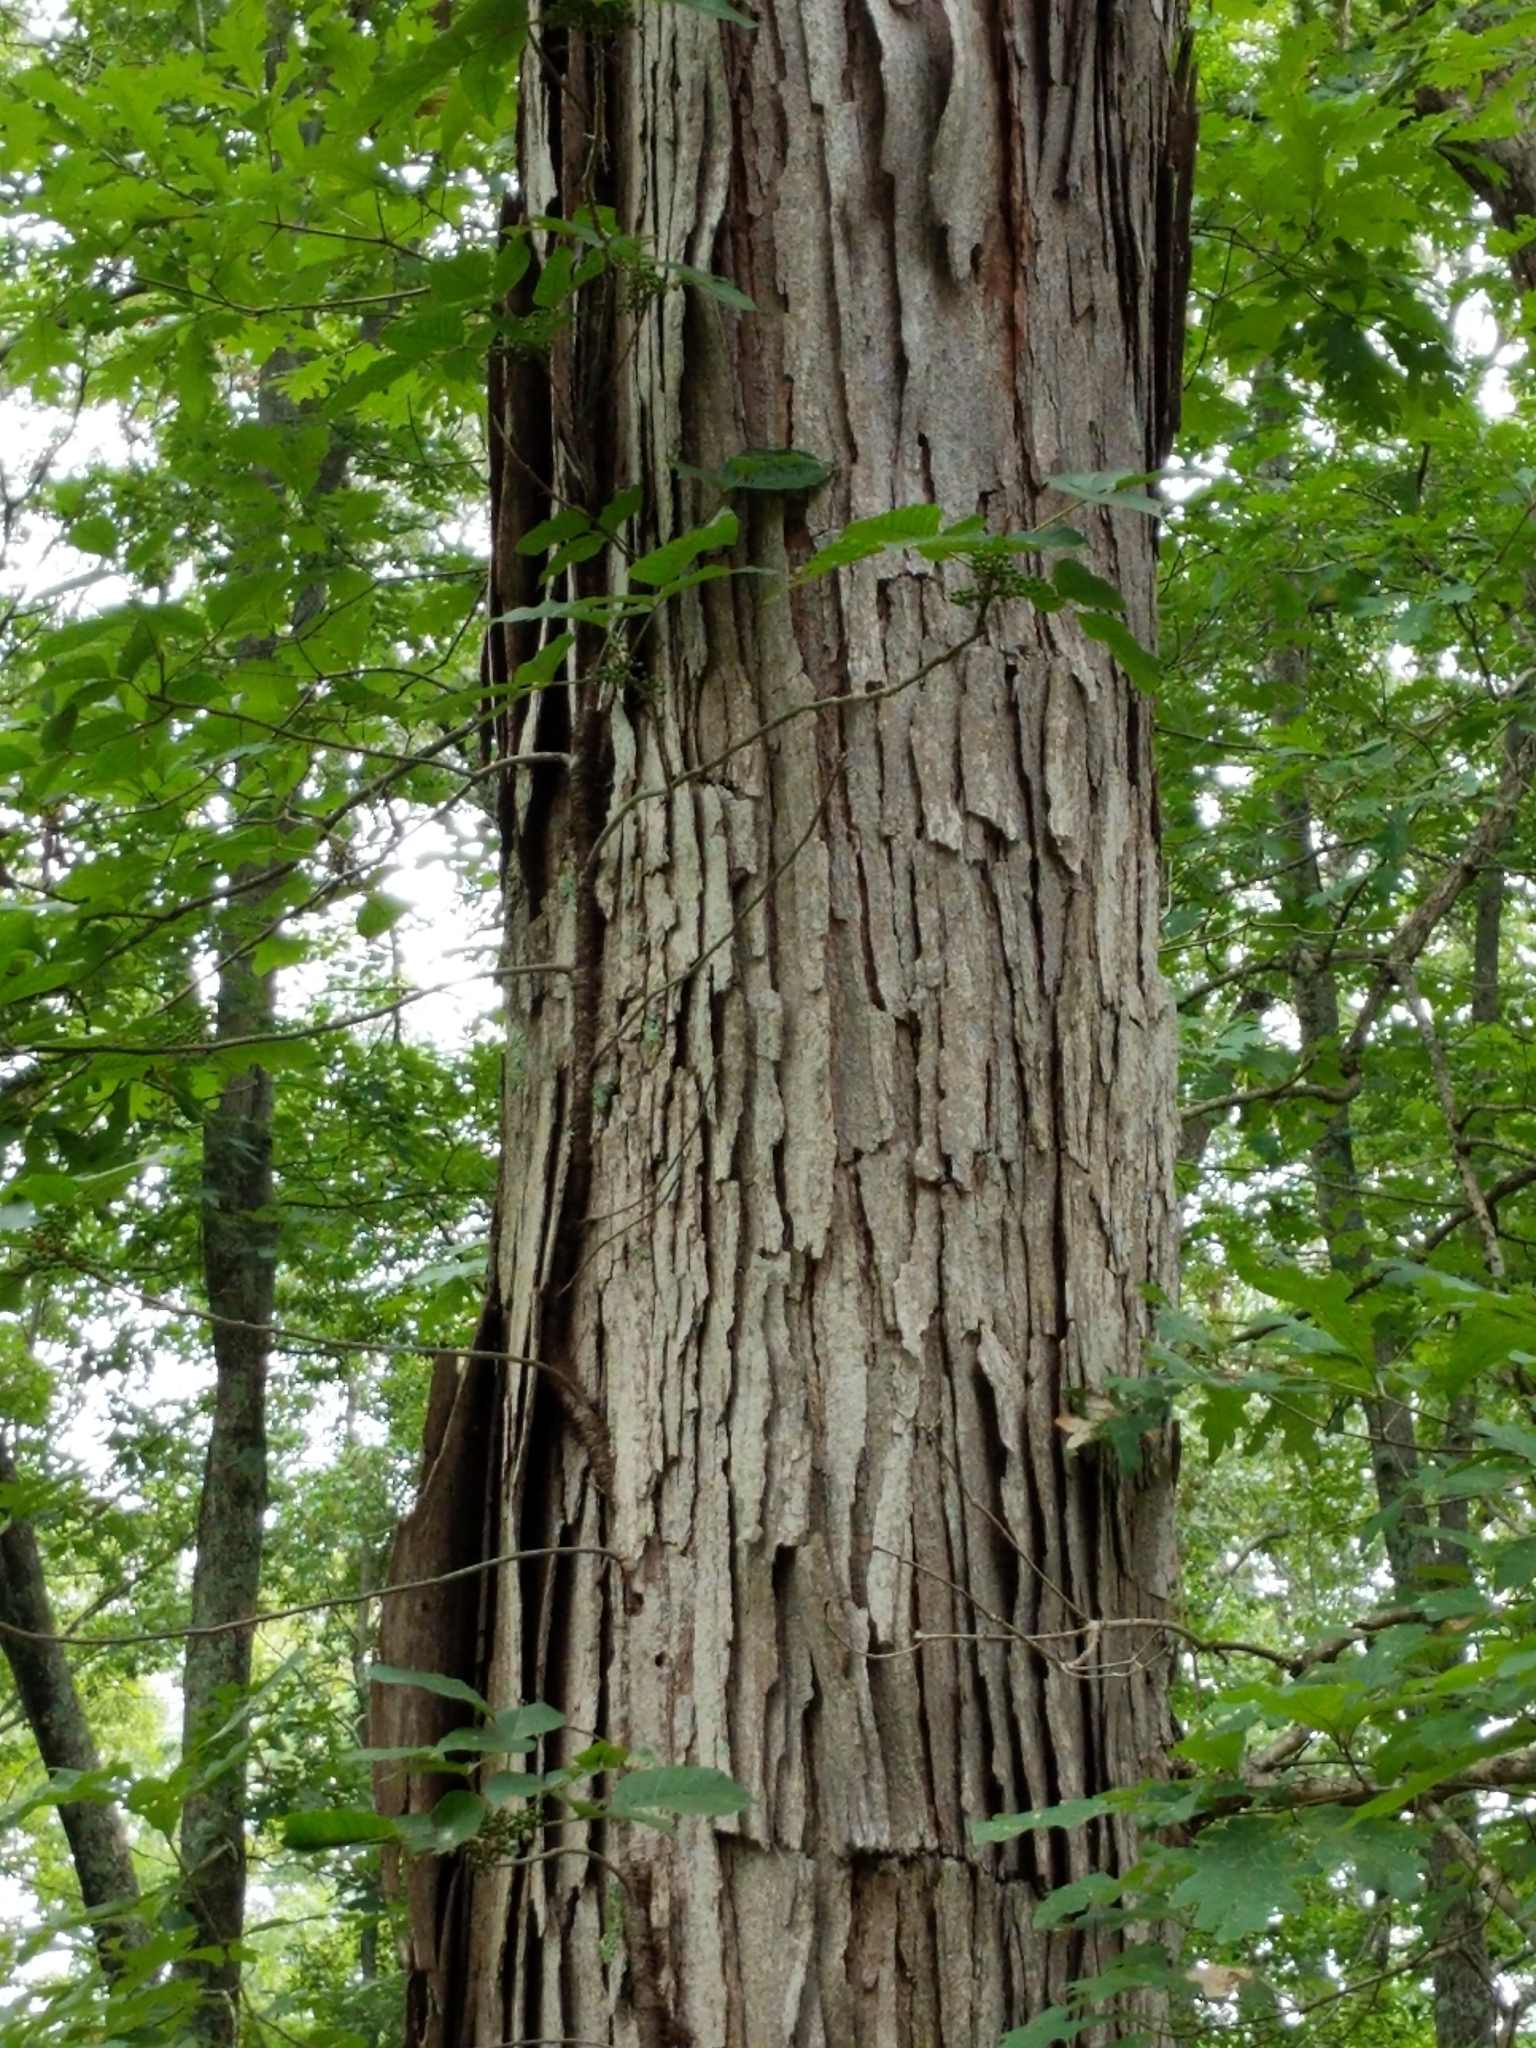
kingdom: Plantae
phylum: Tracheophyta
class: Magnoliopsida
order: Fagales
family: Fagaceae
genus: Quercus
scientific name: Quercus alba
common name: White oak
